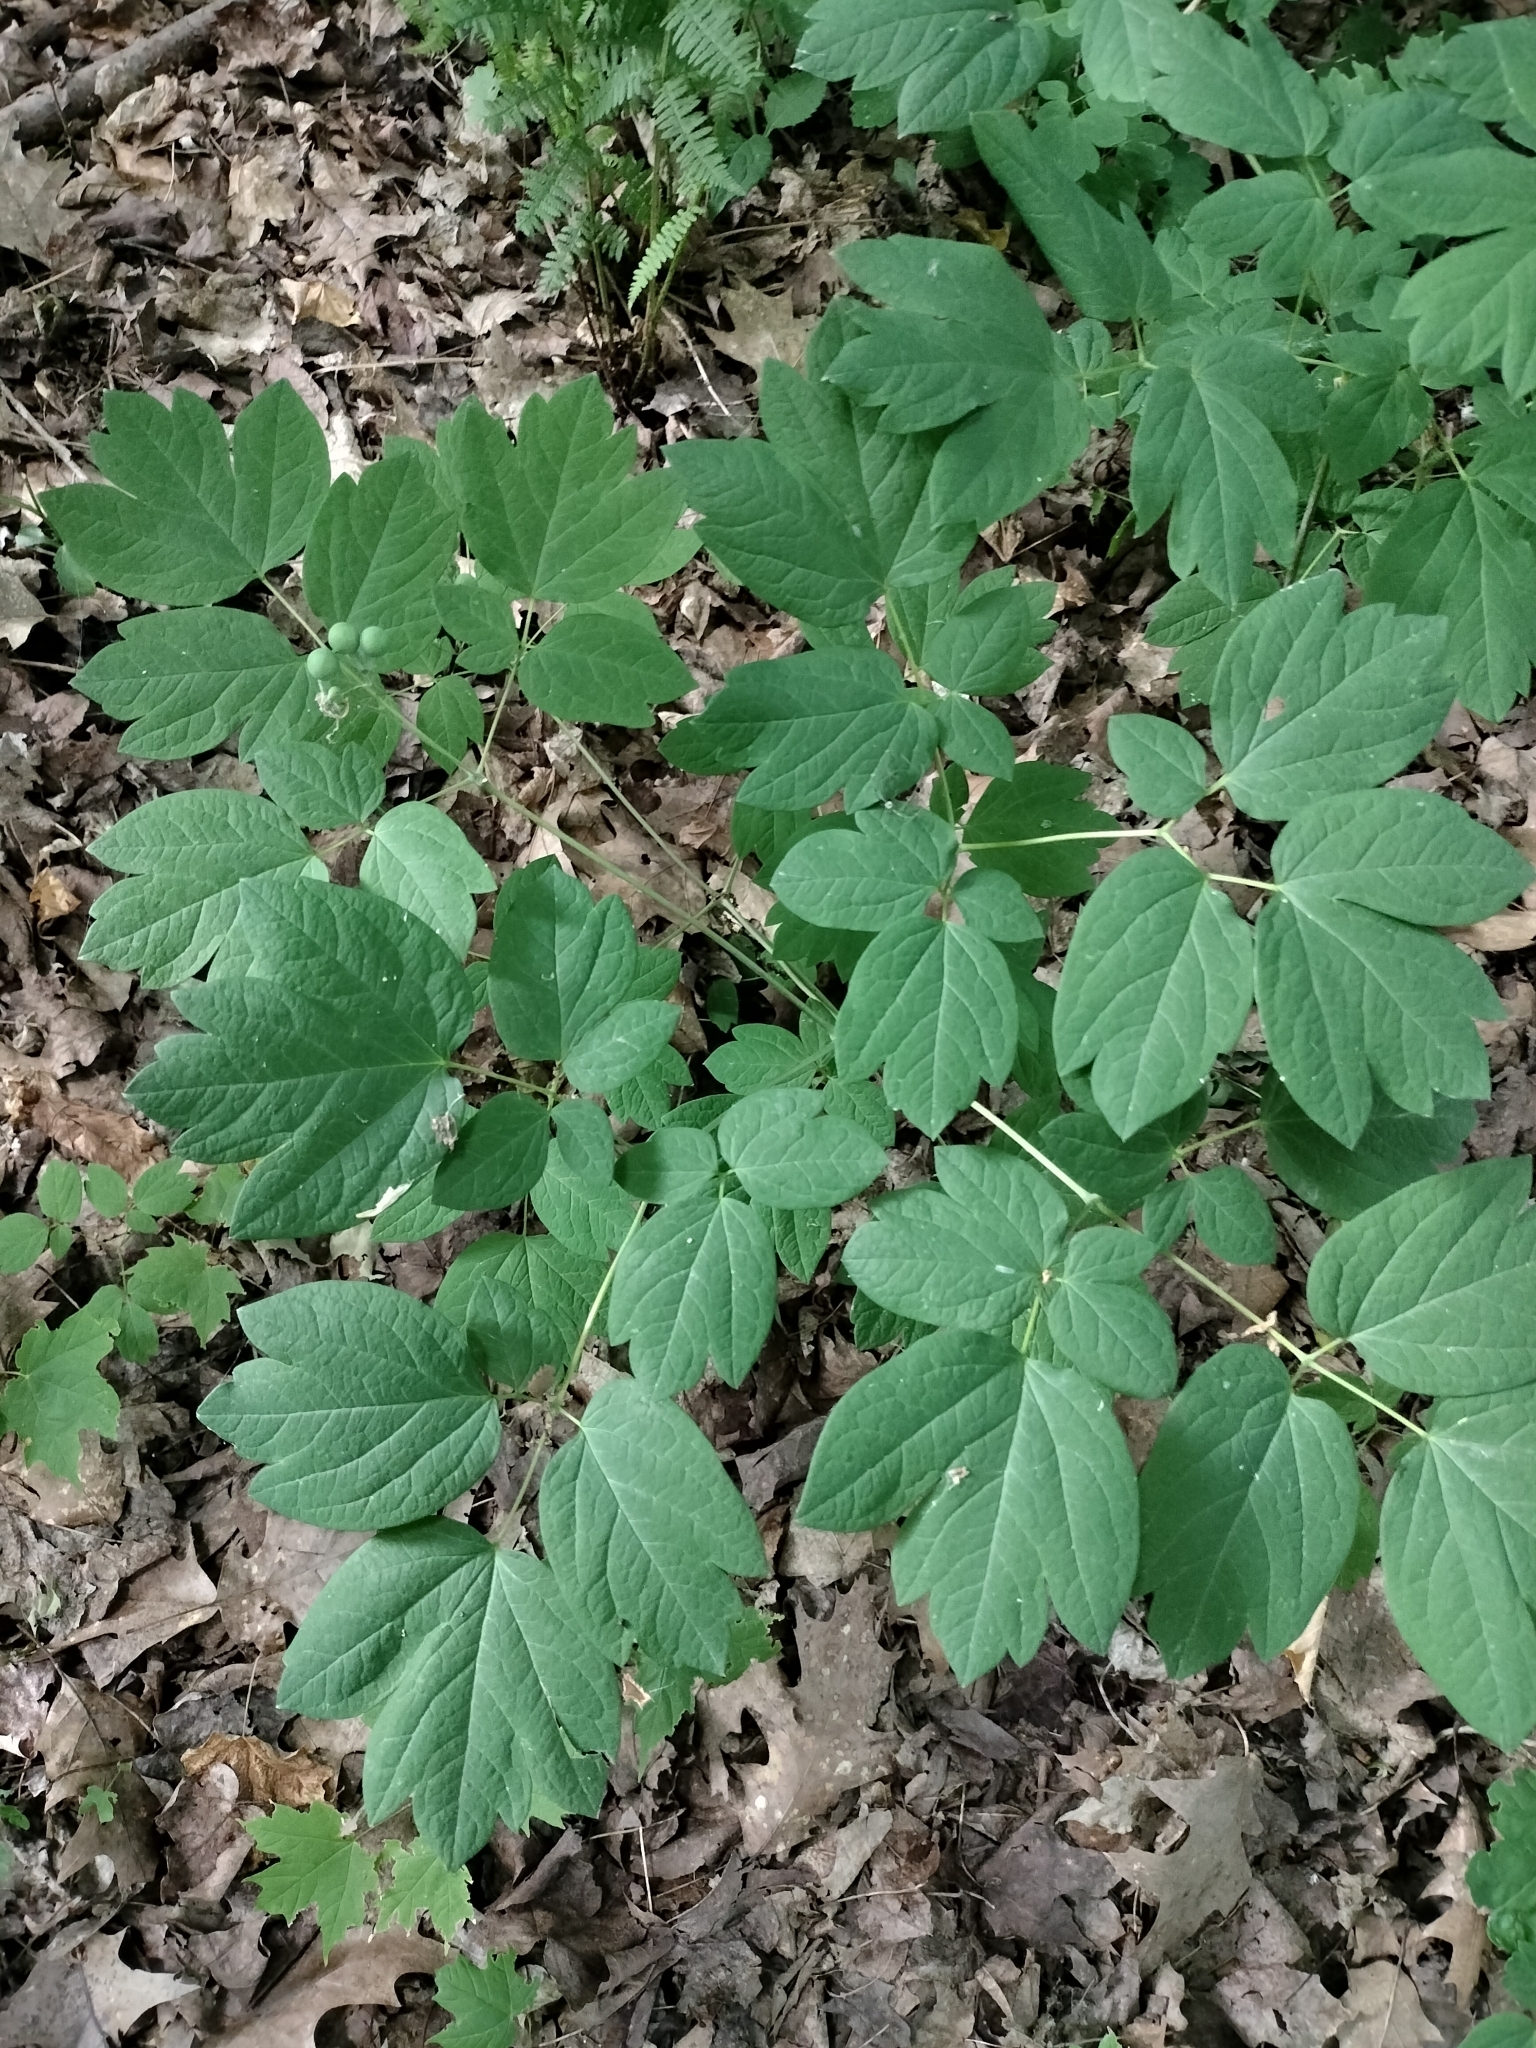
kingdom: Plantae
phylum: Tracheophyta
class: Magnoliopsida
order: Ranunculales
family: Berberidaceae
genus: Caulophyllum
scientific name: Caulophyllum thalictroides
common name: Blue cohosh
